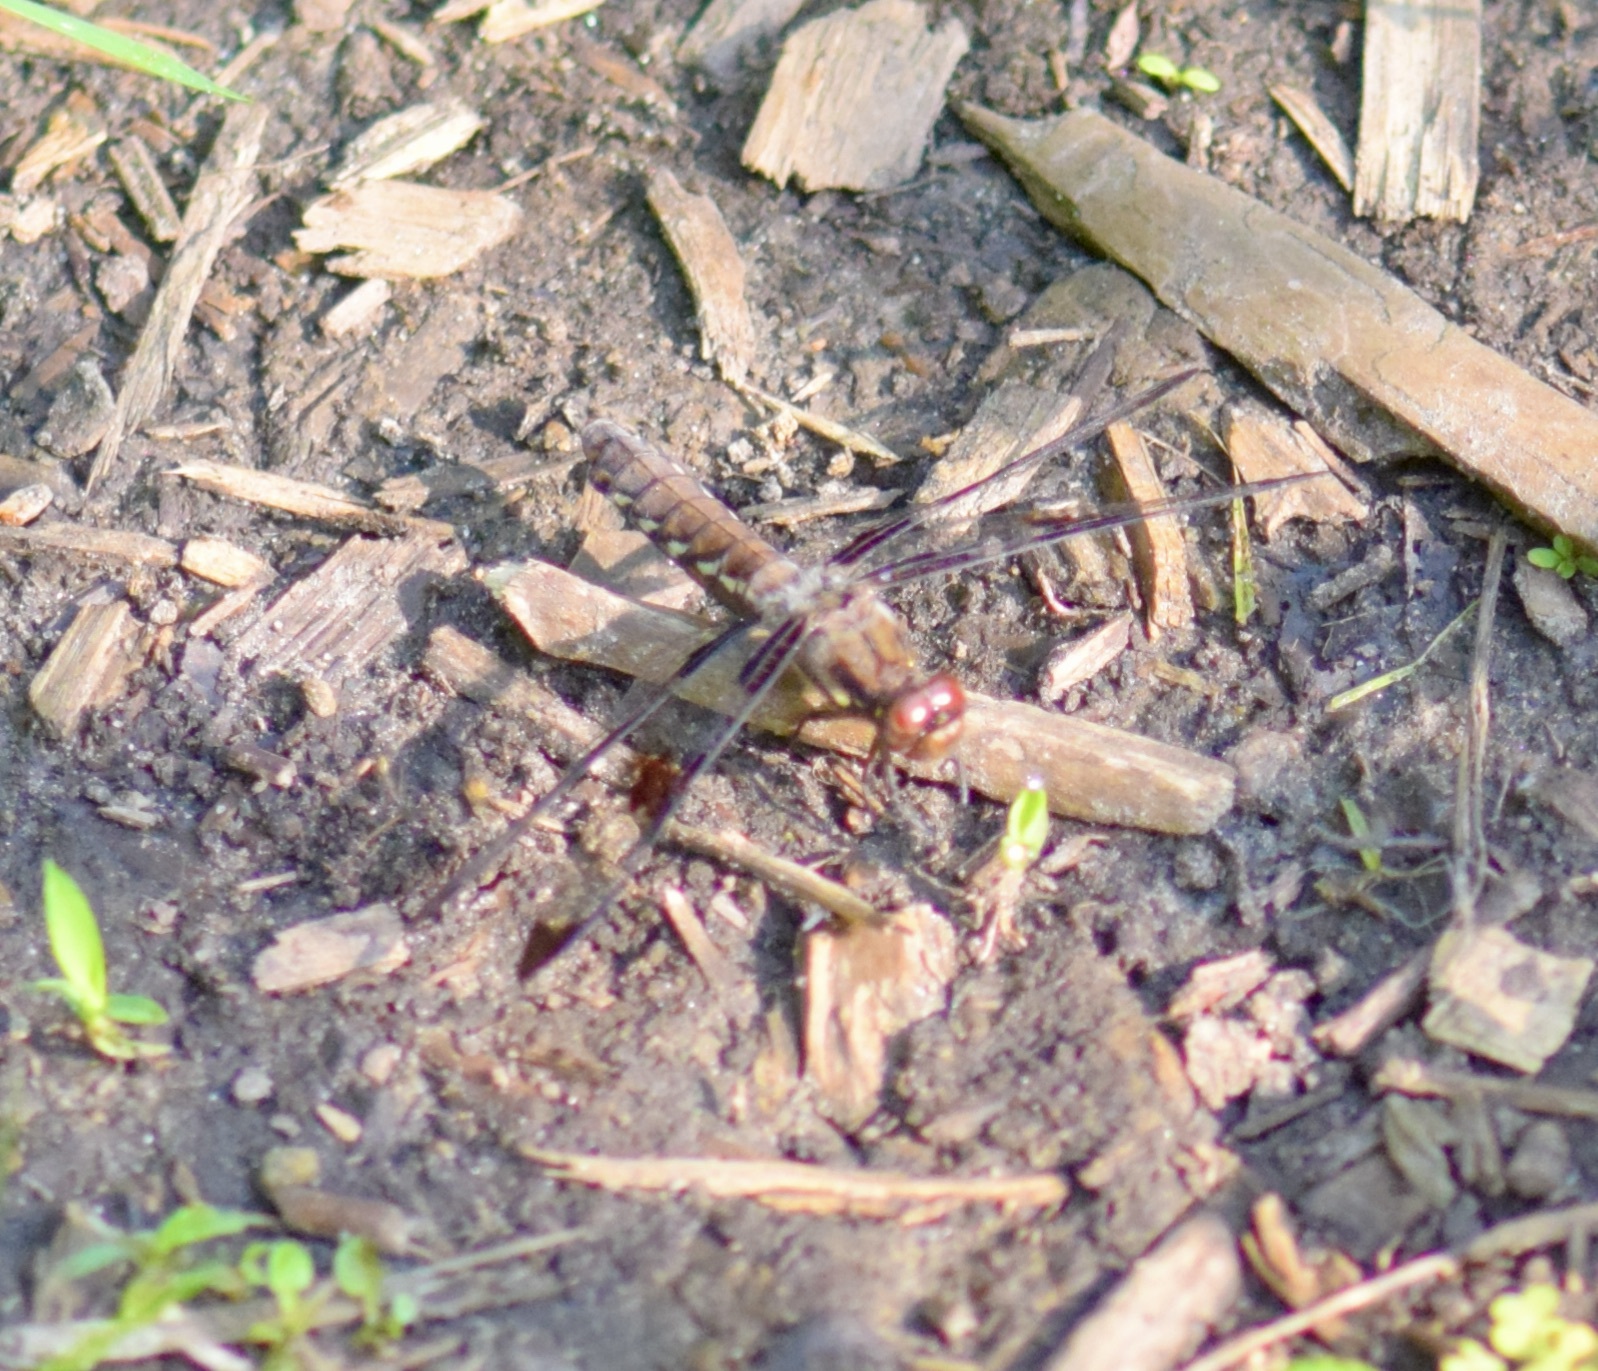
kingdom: Animalia
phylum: Arthropoda
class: Insecta
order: Odonata
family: Libellulidae
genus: Plathemis
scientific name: Plathemis lydia
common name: Common whitetail
